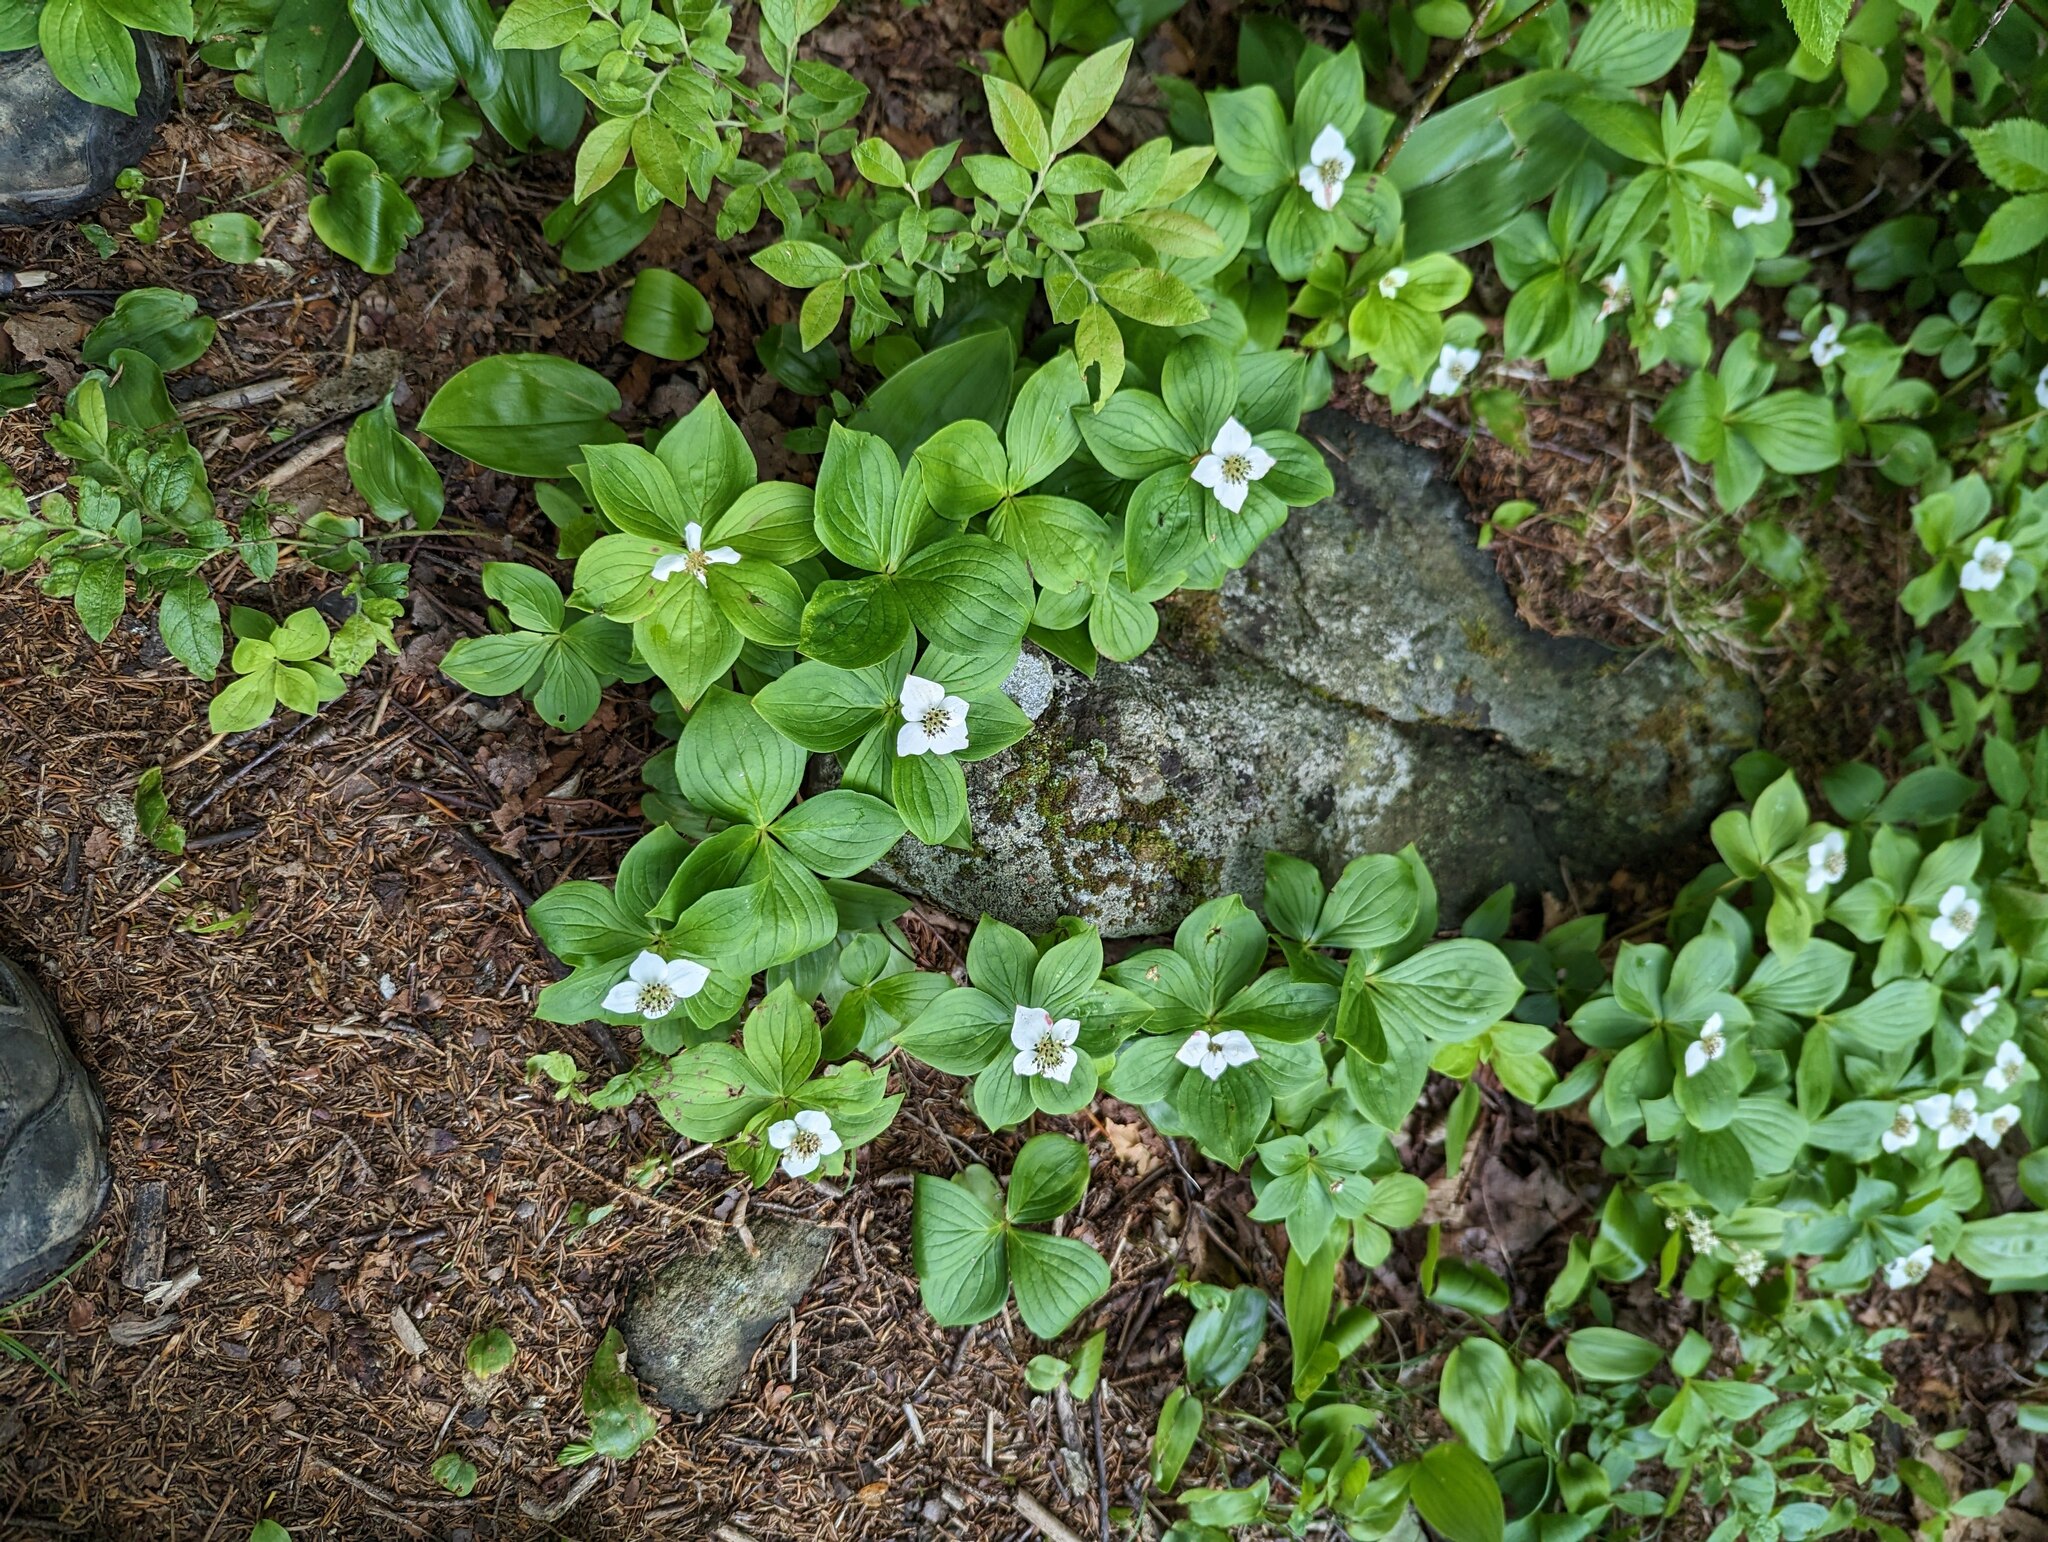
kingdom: Plantae
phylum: Tracheophyta
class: Magnoliopsida
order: Cornales
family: Cornaceae
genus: Cornus
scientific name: Cornus canadensis
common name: Creeping dogwood
